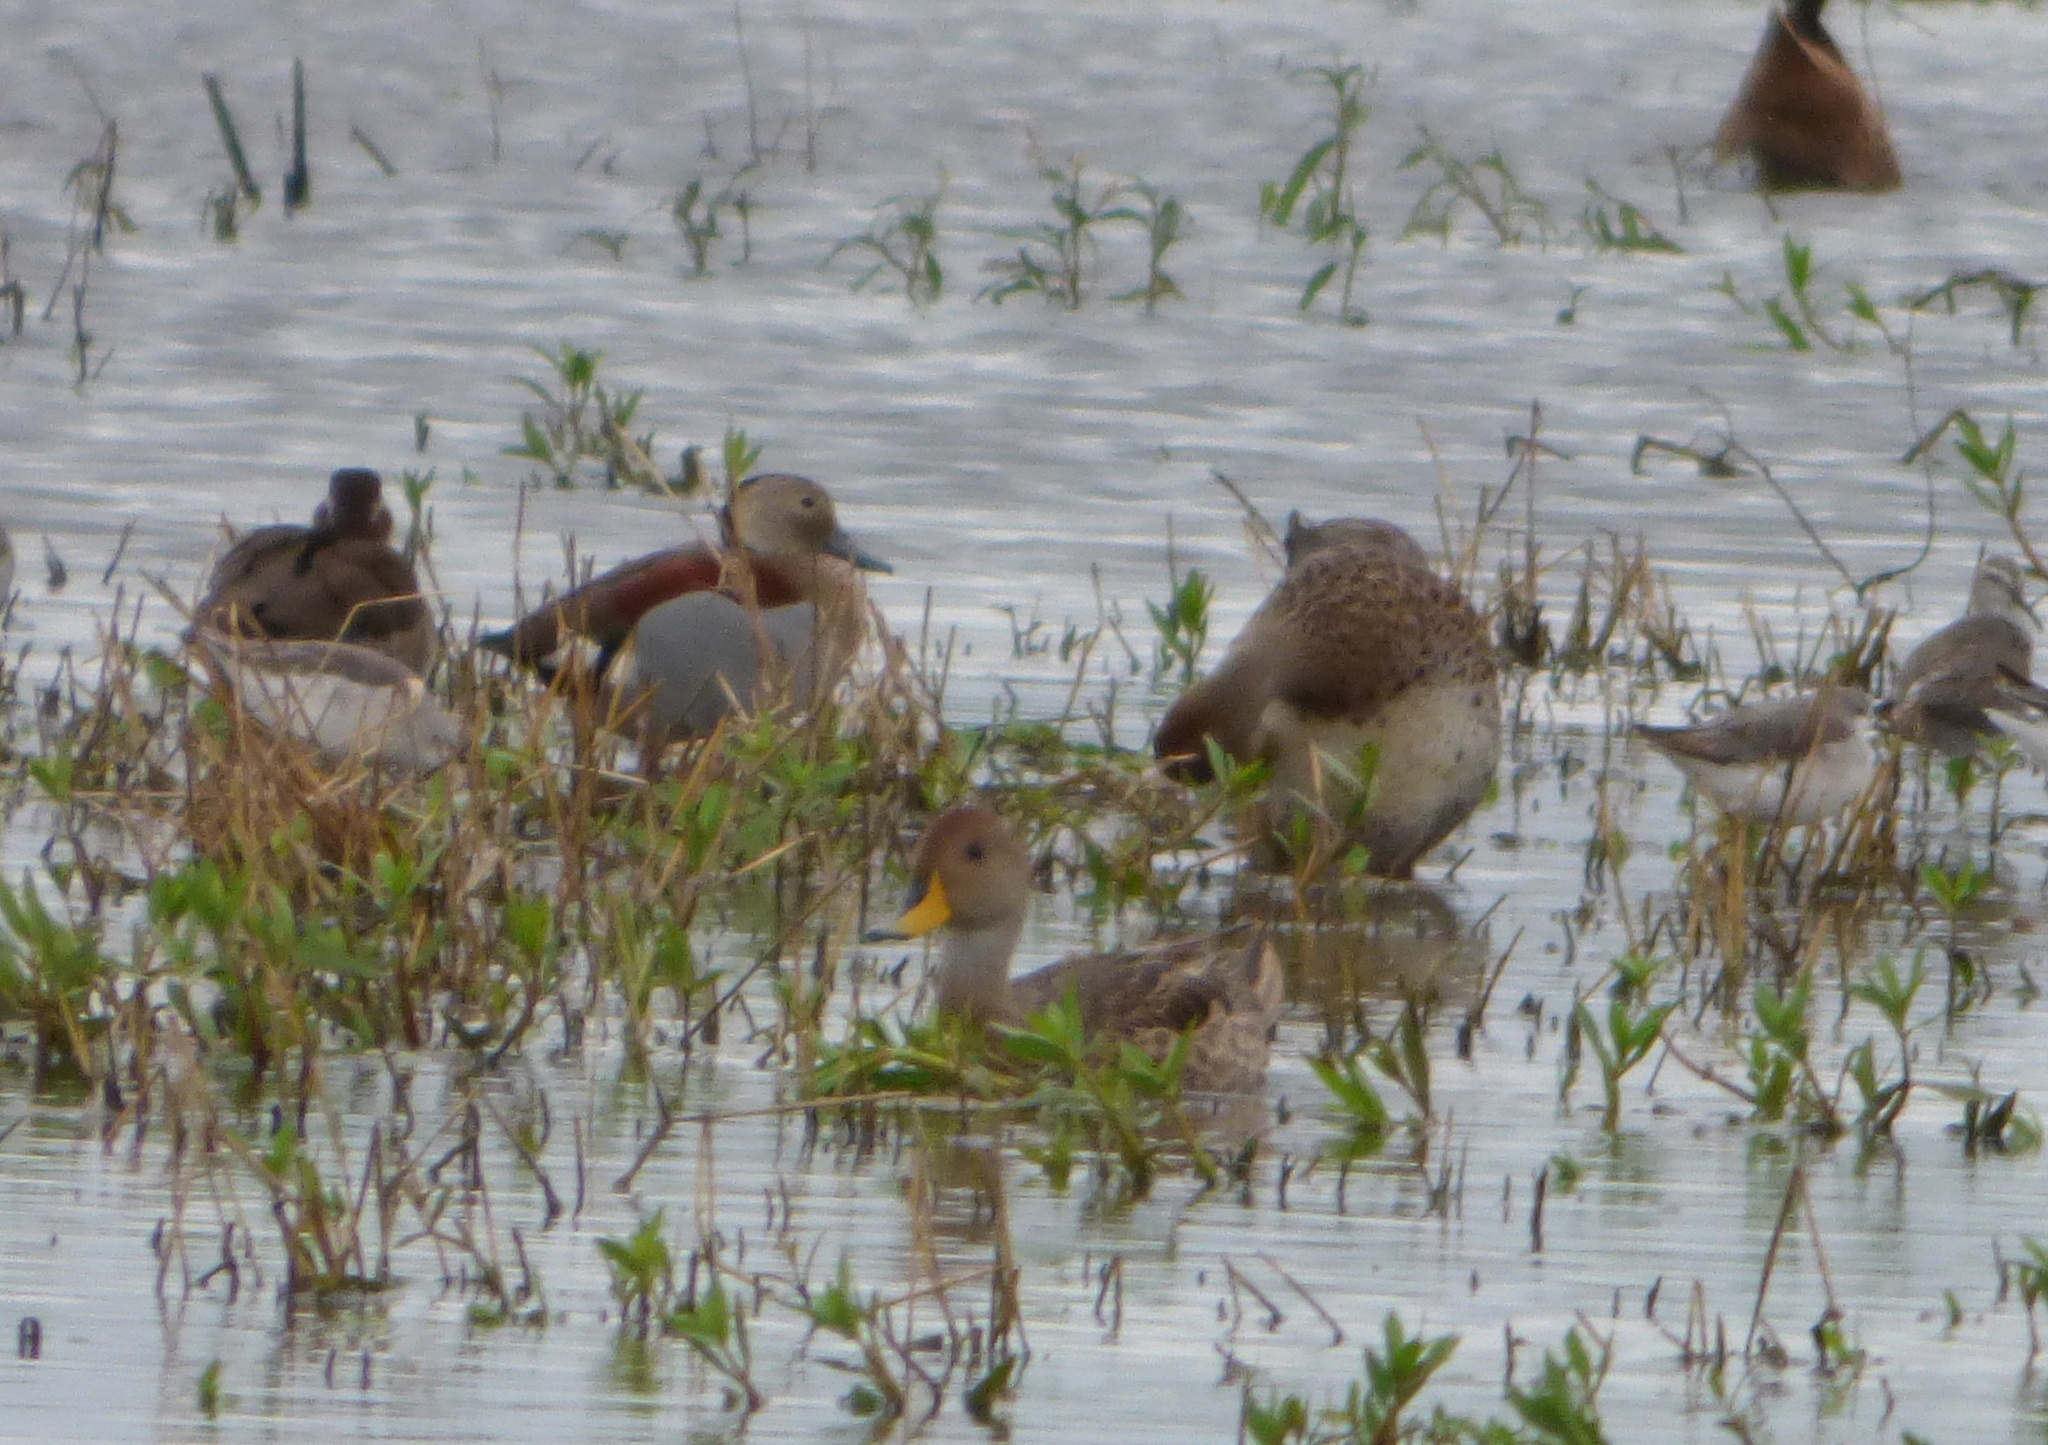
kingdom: Animalia
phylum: Chordata
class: Aves
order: Anseriformes
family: Anatidae
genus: Anas
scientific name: Anas georgica
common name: Yellow-billed pintail
